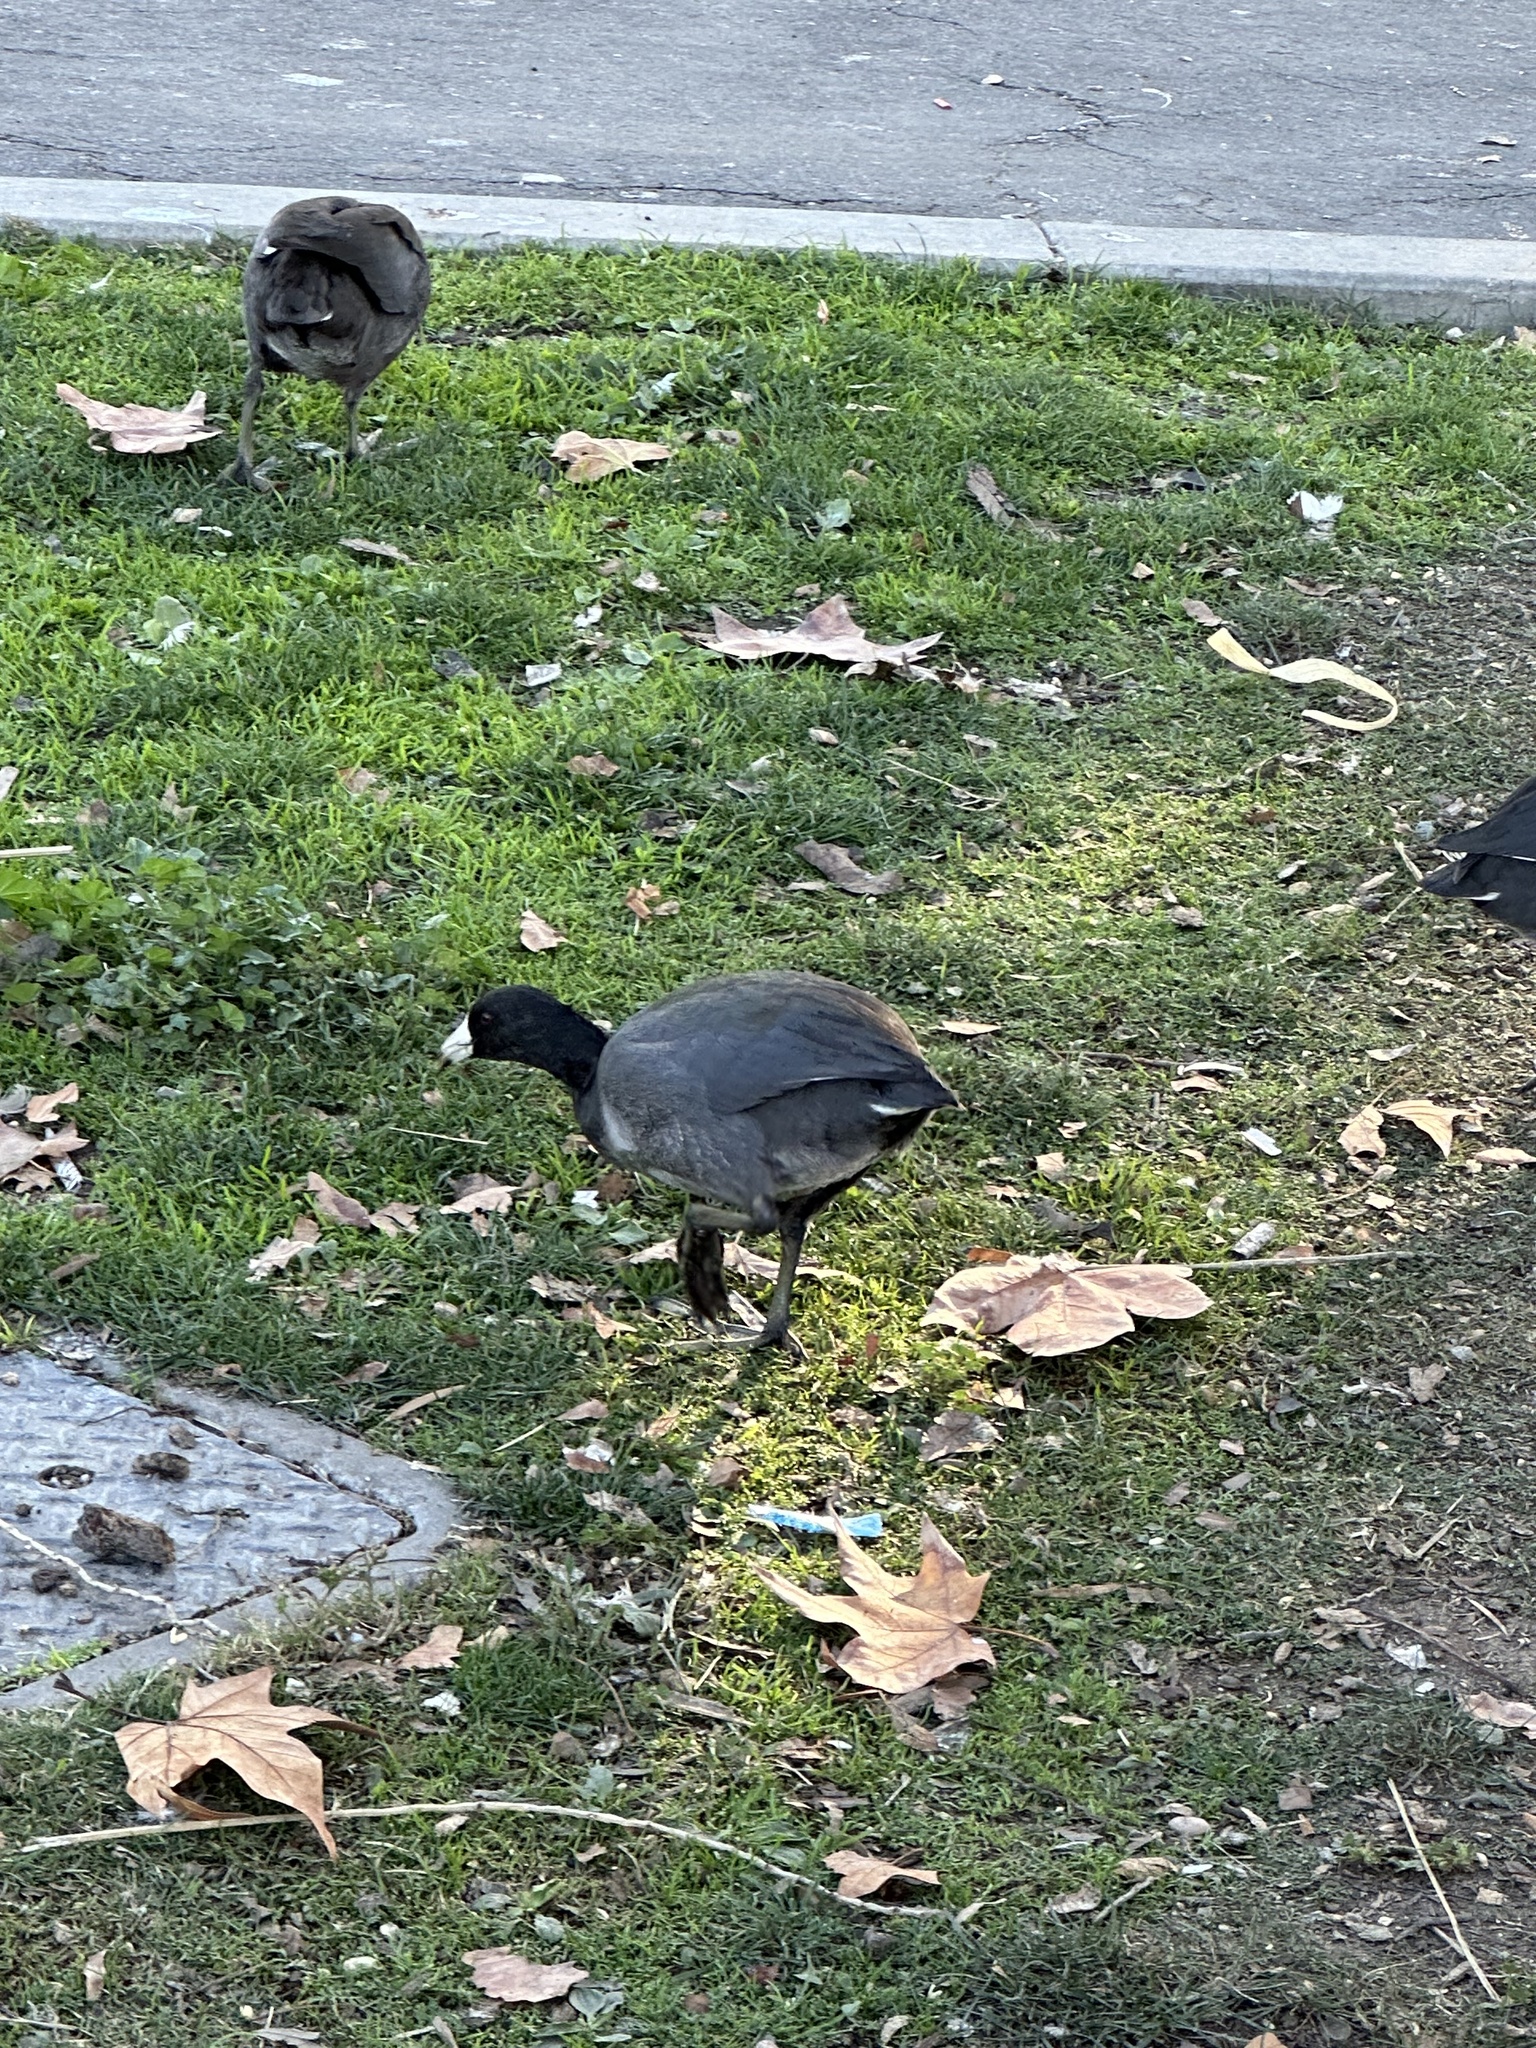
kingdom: Animalia
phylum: Chordata
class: Aves
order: Gruiformes
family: Rallidae
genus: Fulica
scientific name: Fulica americana
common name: American coot
